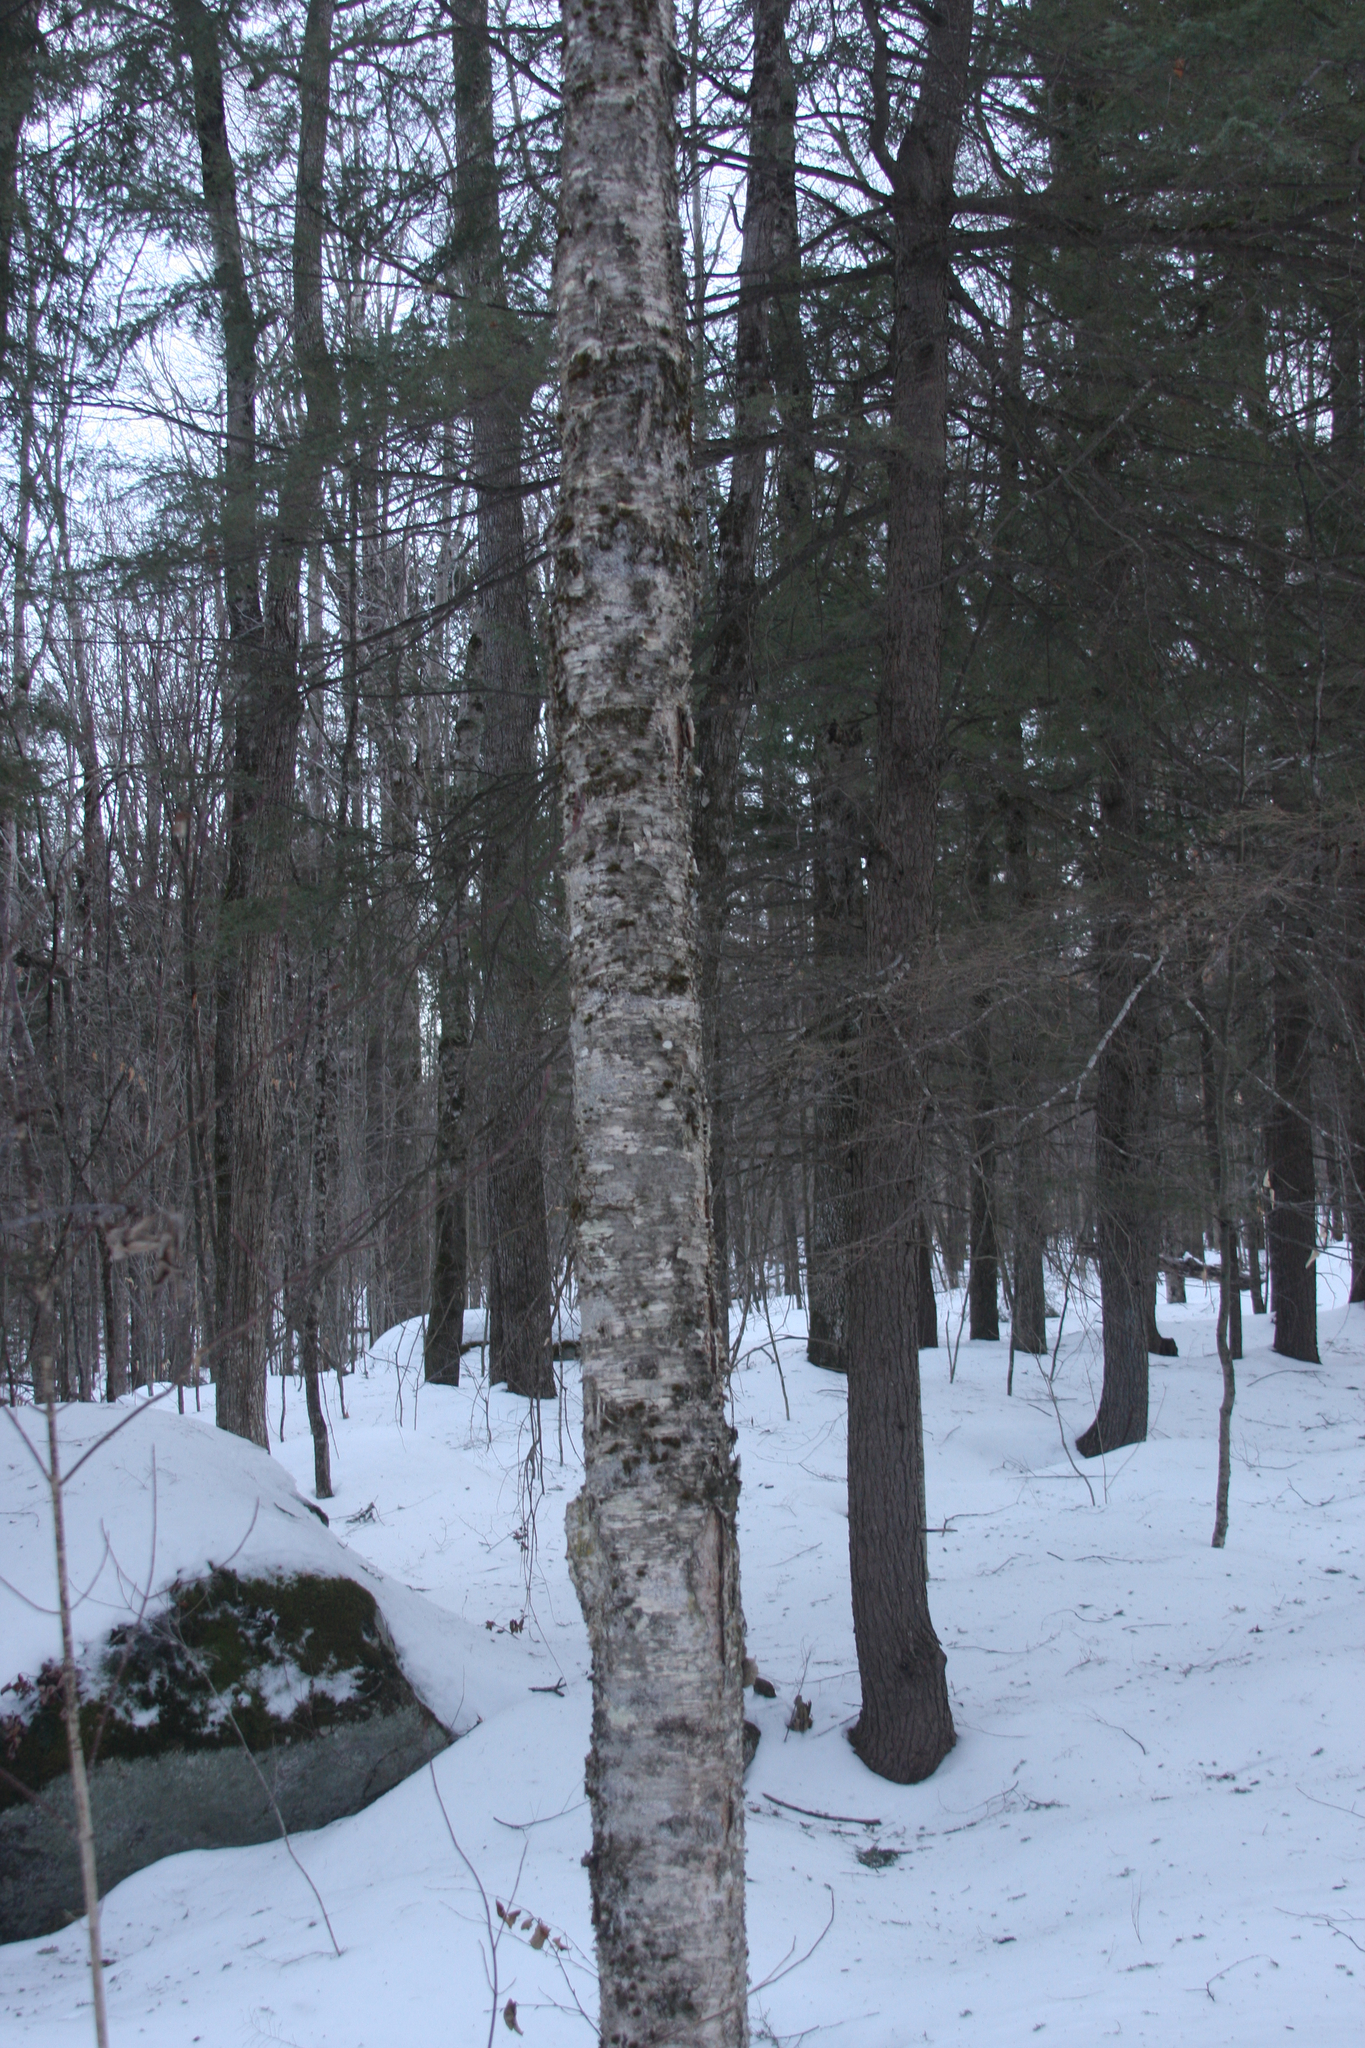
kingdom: Plantae
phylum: Tracheophyta
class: Magnoliopsida
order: Fagales
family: Betulaceae
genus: Betula
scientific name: Betula alleghaniensis
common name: Yellow birch
